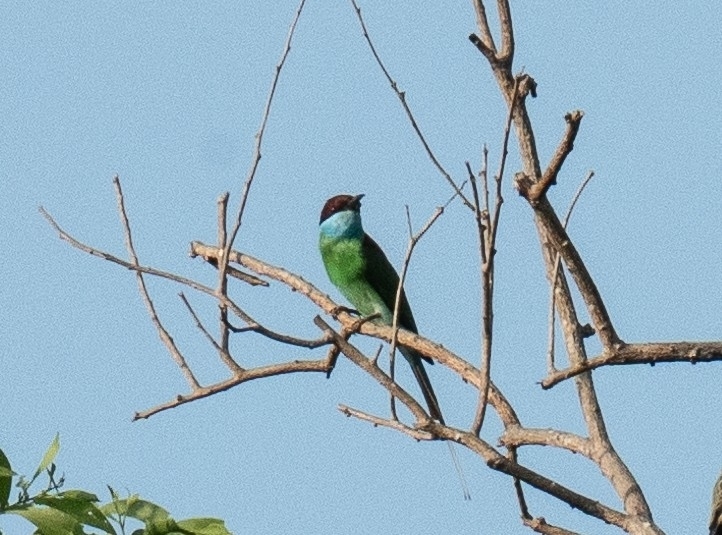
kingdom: Animalia
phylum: Chordata
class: Aves
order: Coraciiformes
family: Meropidae
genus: Merops
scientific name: Merops viridis
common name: Blue-throated bee-eater
